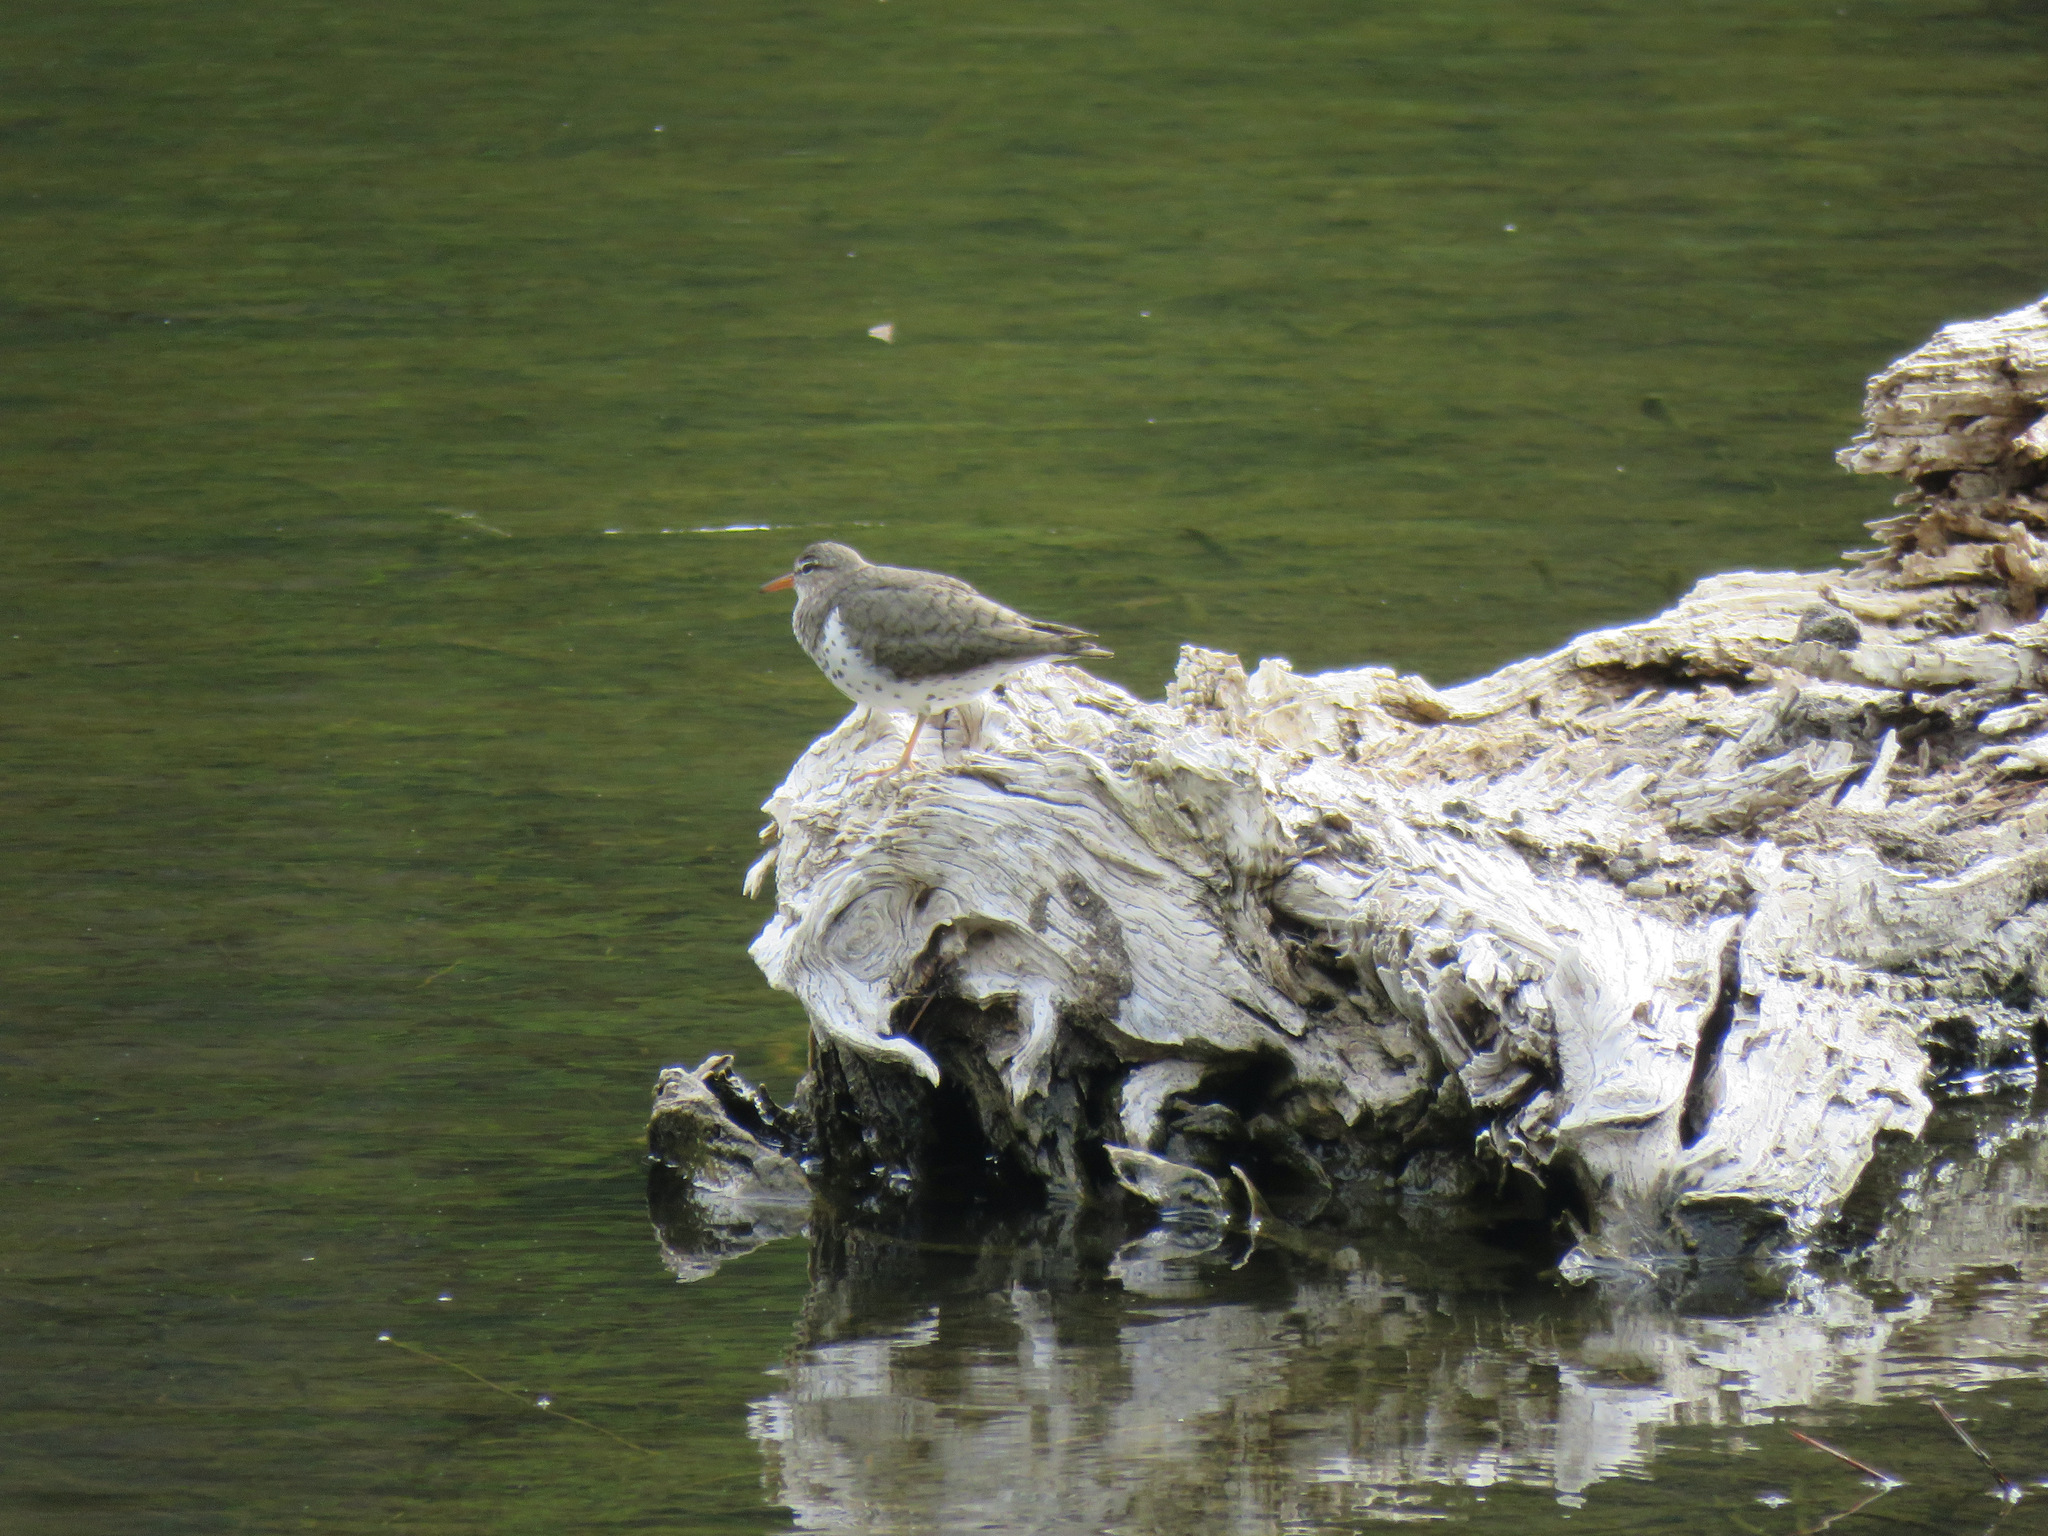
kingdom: Animalia
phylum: Chordata
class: Aves
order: Charadriiformes
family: Scolopacidae
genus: Actitis
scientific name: Actitis macularius
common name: Spotted sandpiper
